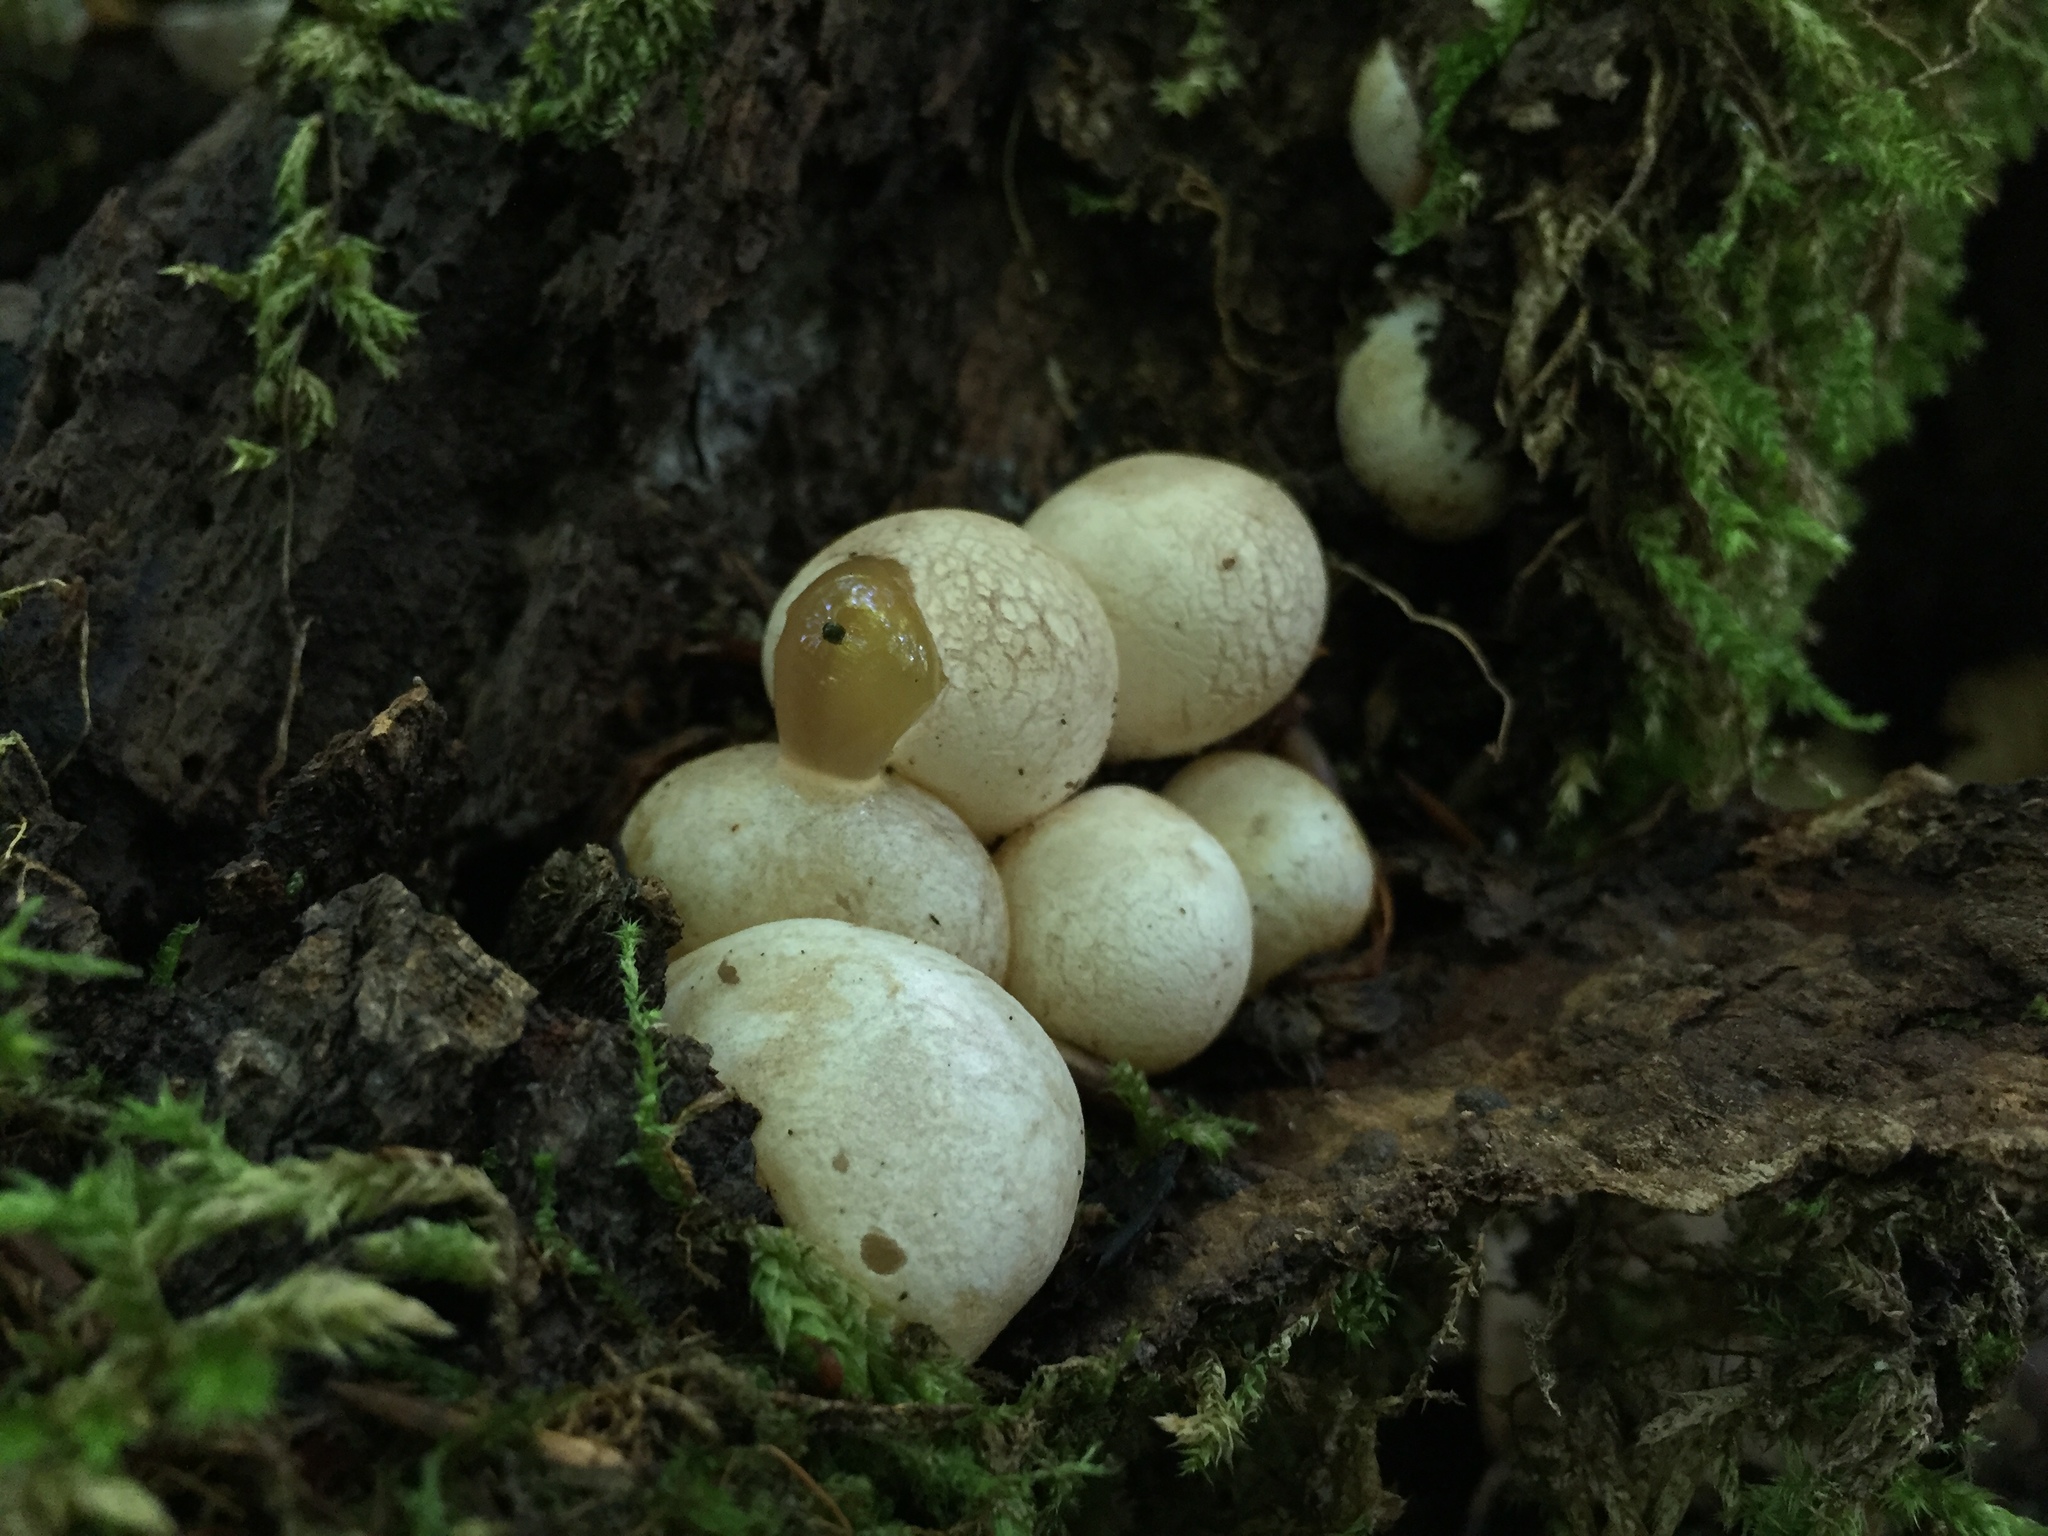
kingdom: Fungi
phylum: Basidiomycota
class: Agaricomycetes
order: Phallales
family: Phallaceae
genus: Phallus
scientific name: Phallus impudicus
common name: Common stinkhorn
